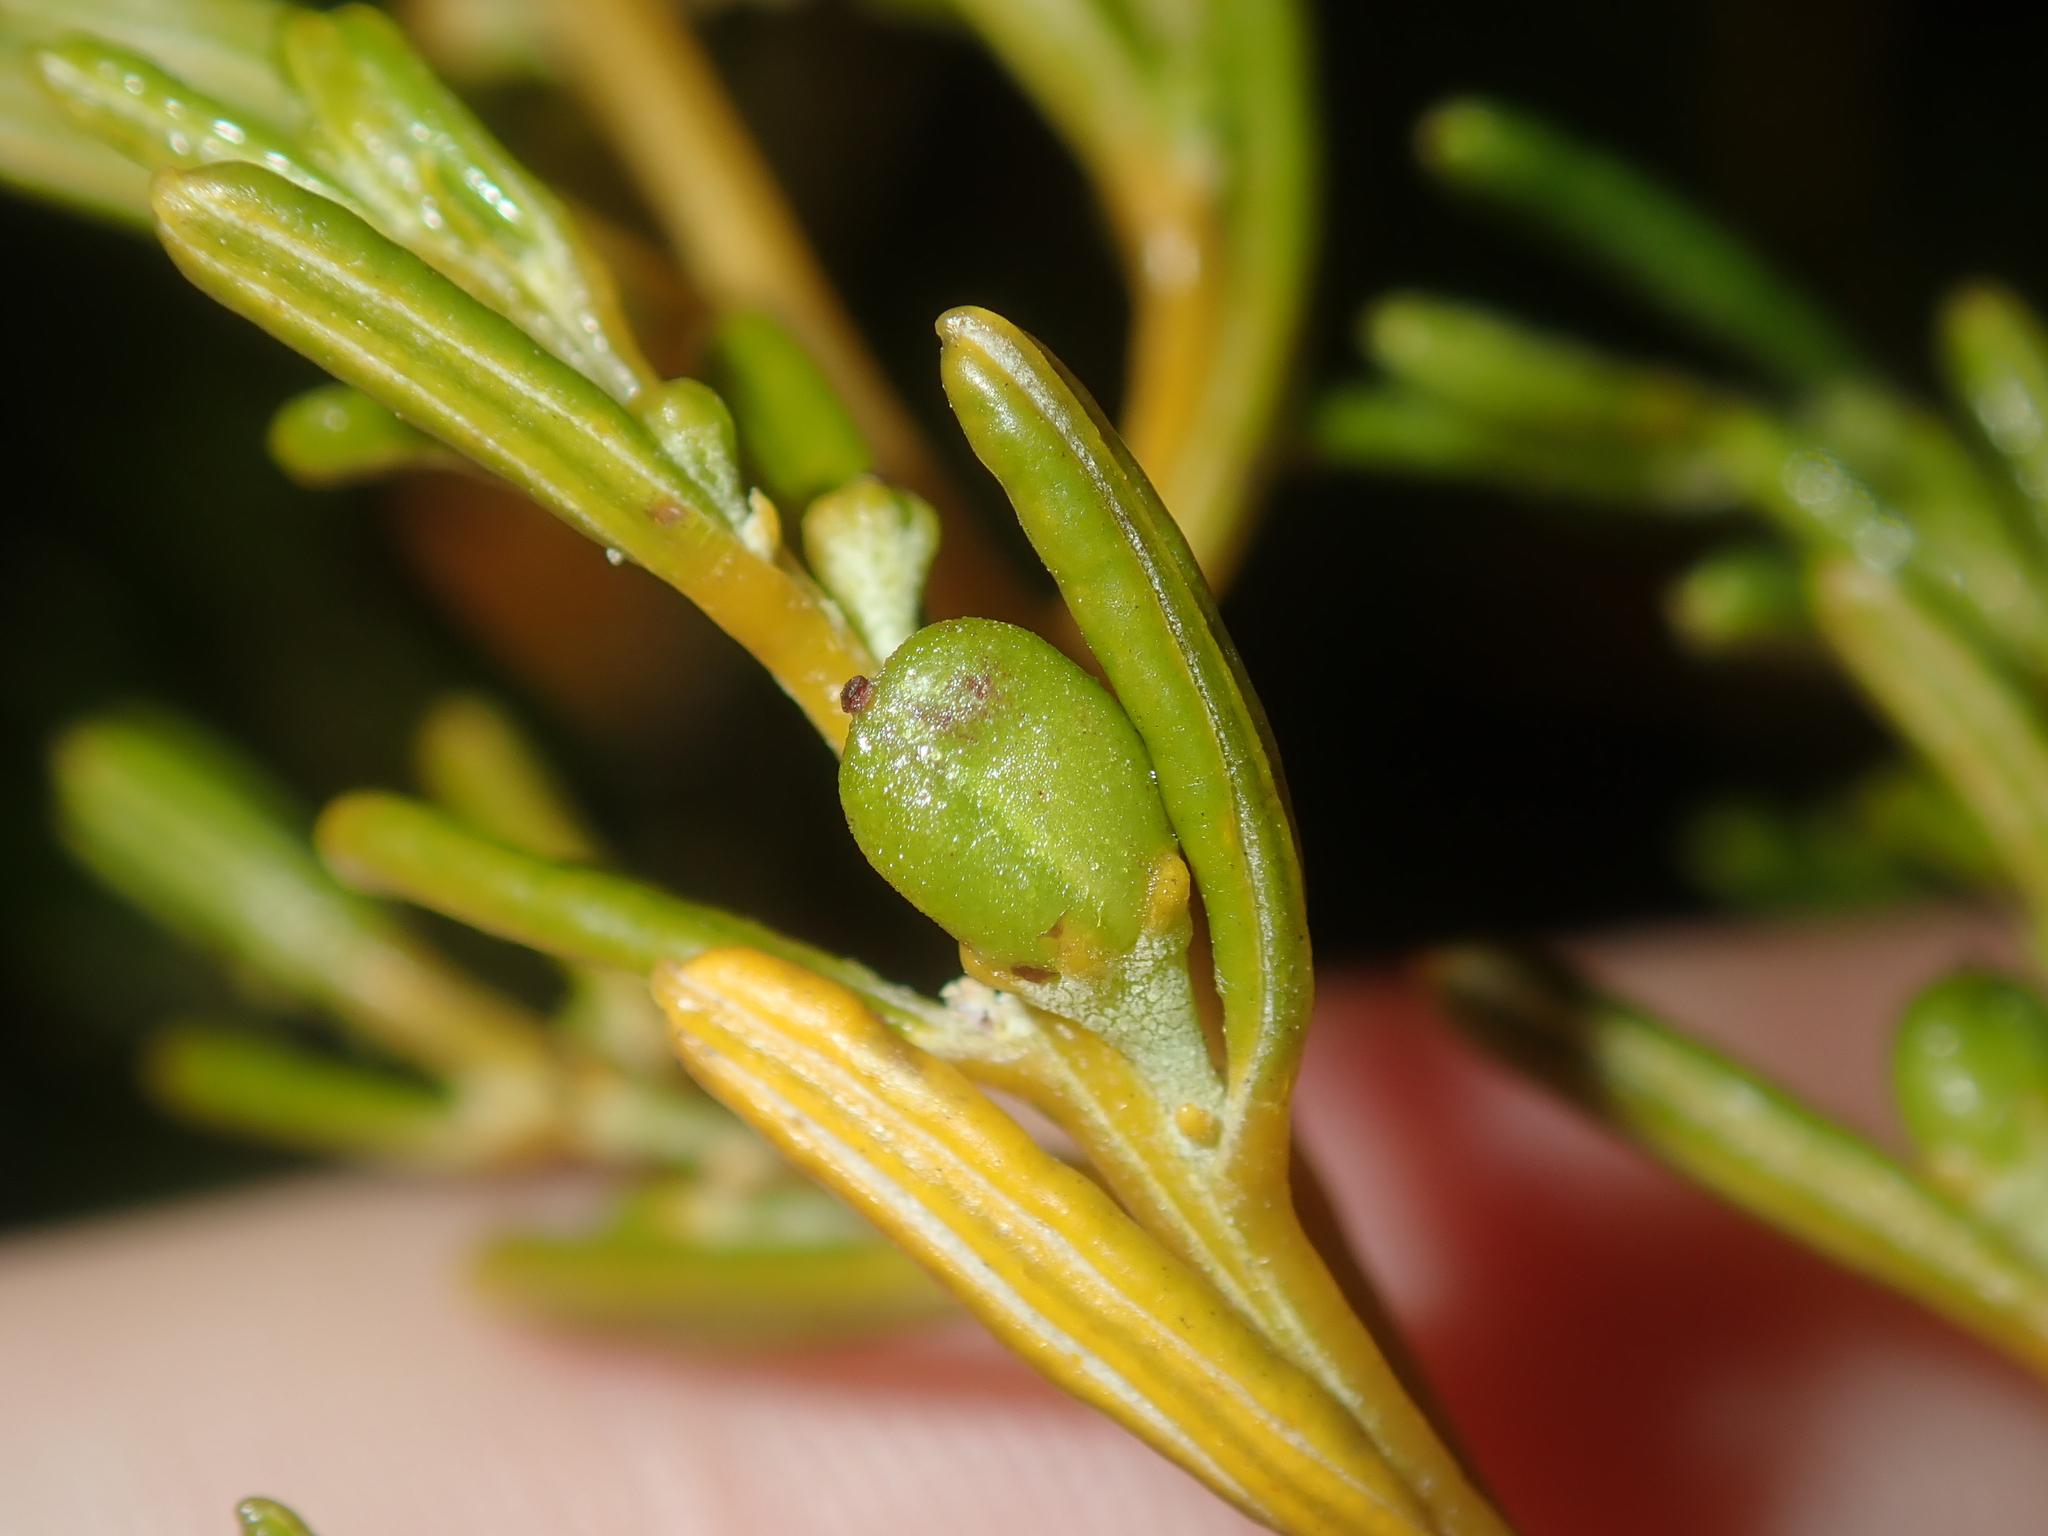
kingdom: Plantae
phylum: Tracheophyta
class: Magnoliopsida
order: Malpighiales
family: Euphorbiaceae
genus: Beyeria
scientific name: Beyeria sulcata
